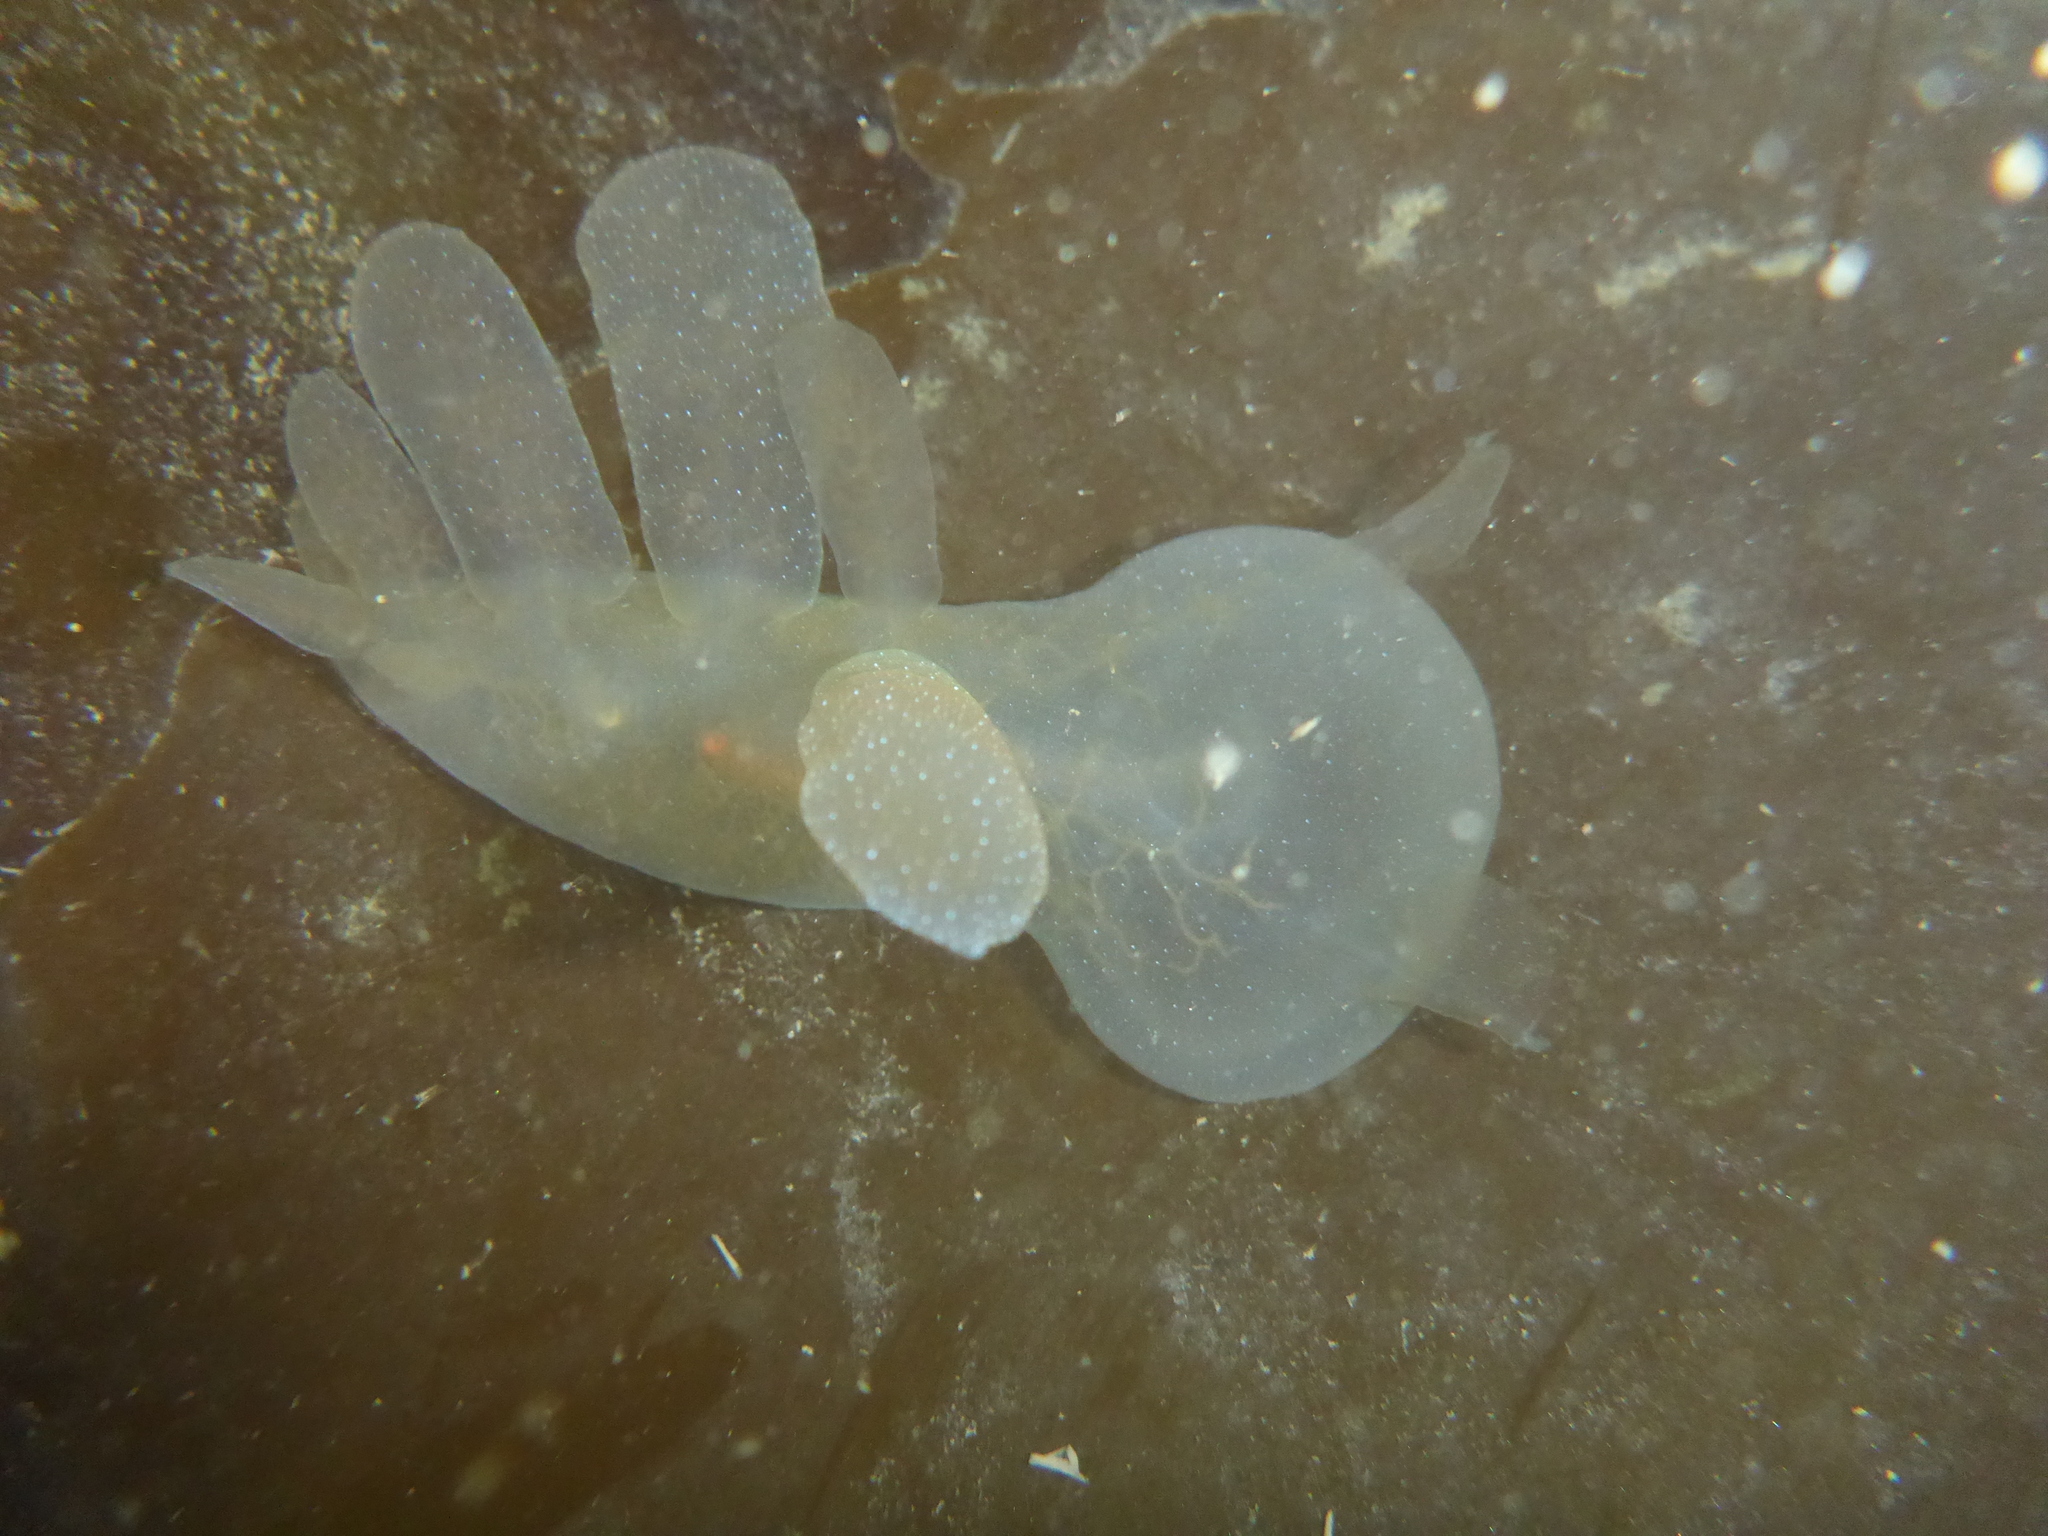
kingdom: Animalia
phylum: Mollusca
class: Gastropoda
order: Nudibranchia
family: Tethydidae
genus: Melibe
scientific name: Melibe leonina
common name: Lion nudibranch
